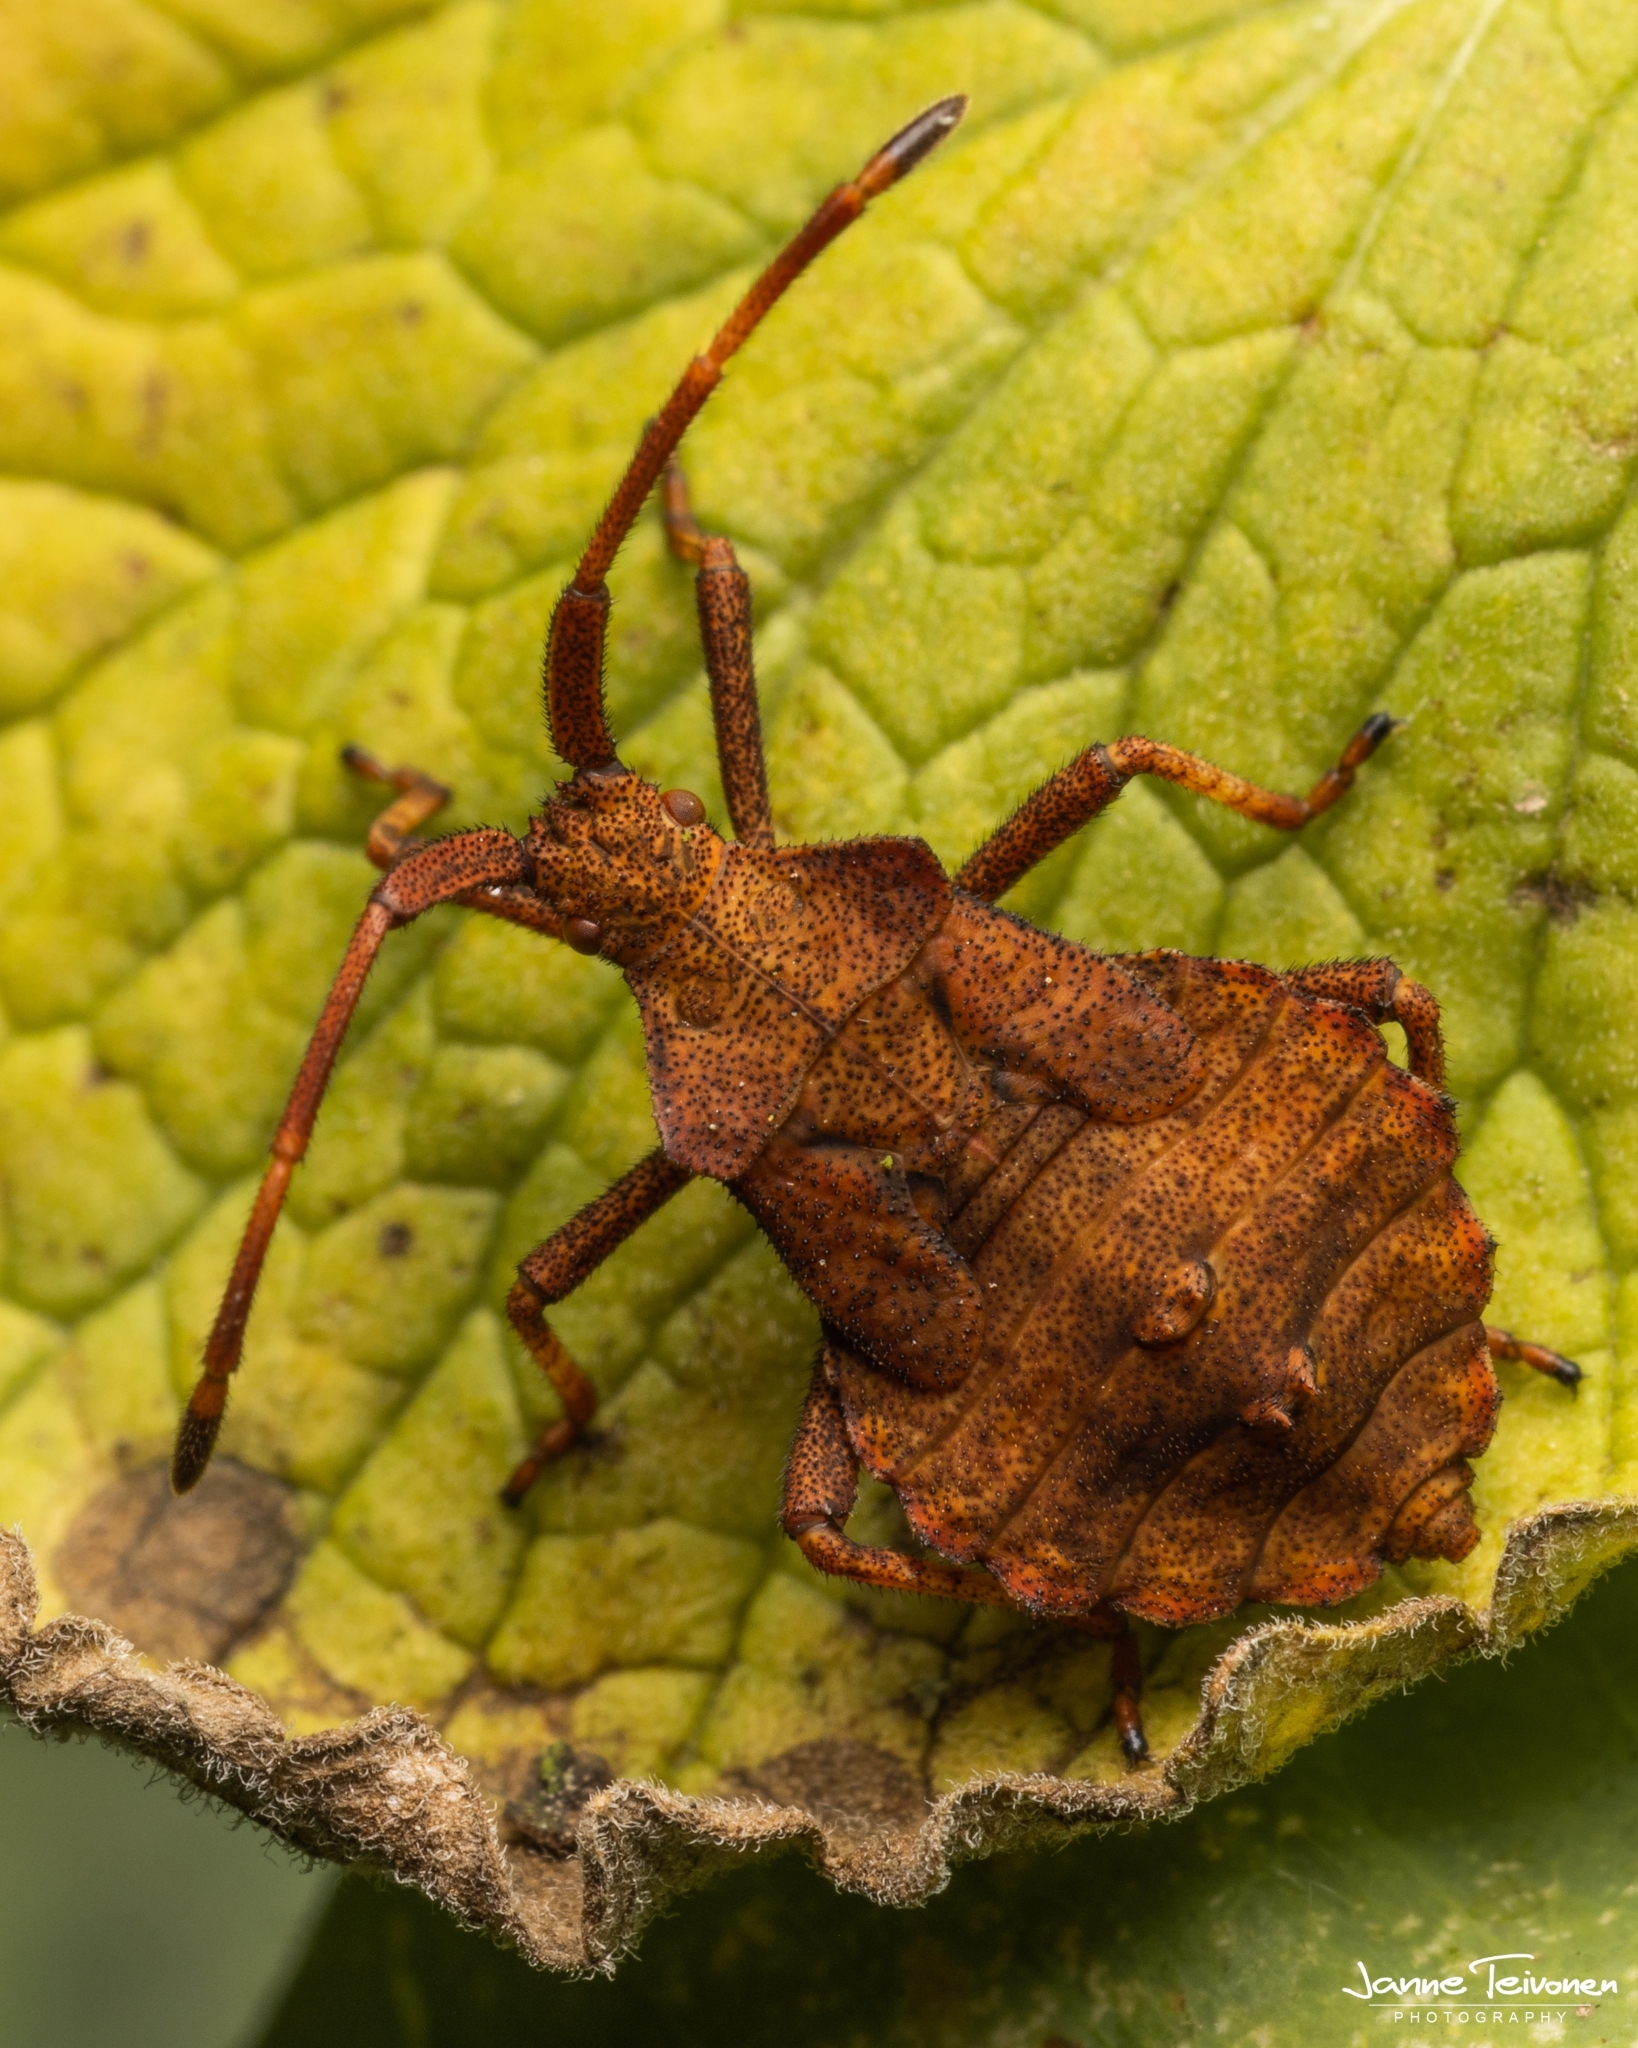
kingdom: Animalia
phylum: Arthropoda
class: Insecta
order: Hemiptera
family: Coreidae
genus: Coreus
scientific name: Coreus marginatus
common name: Dock bug
